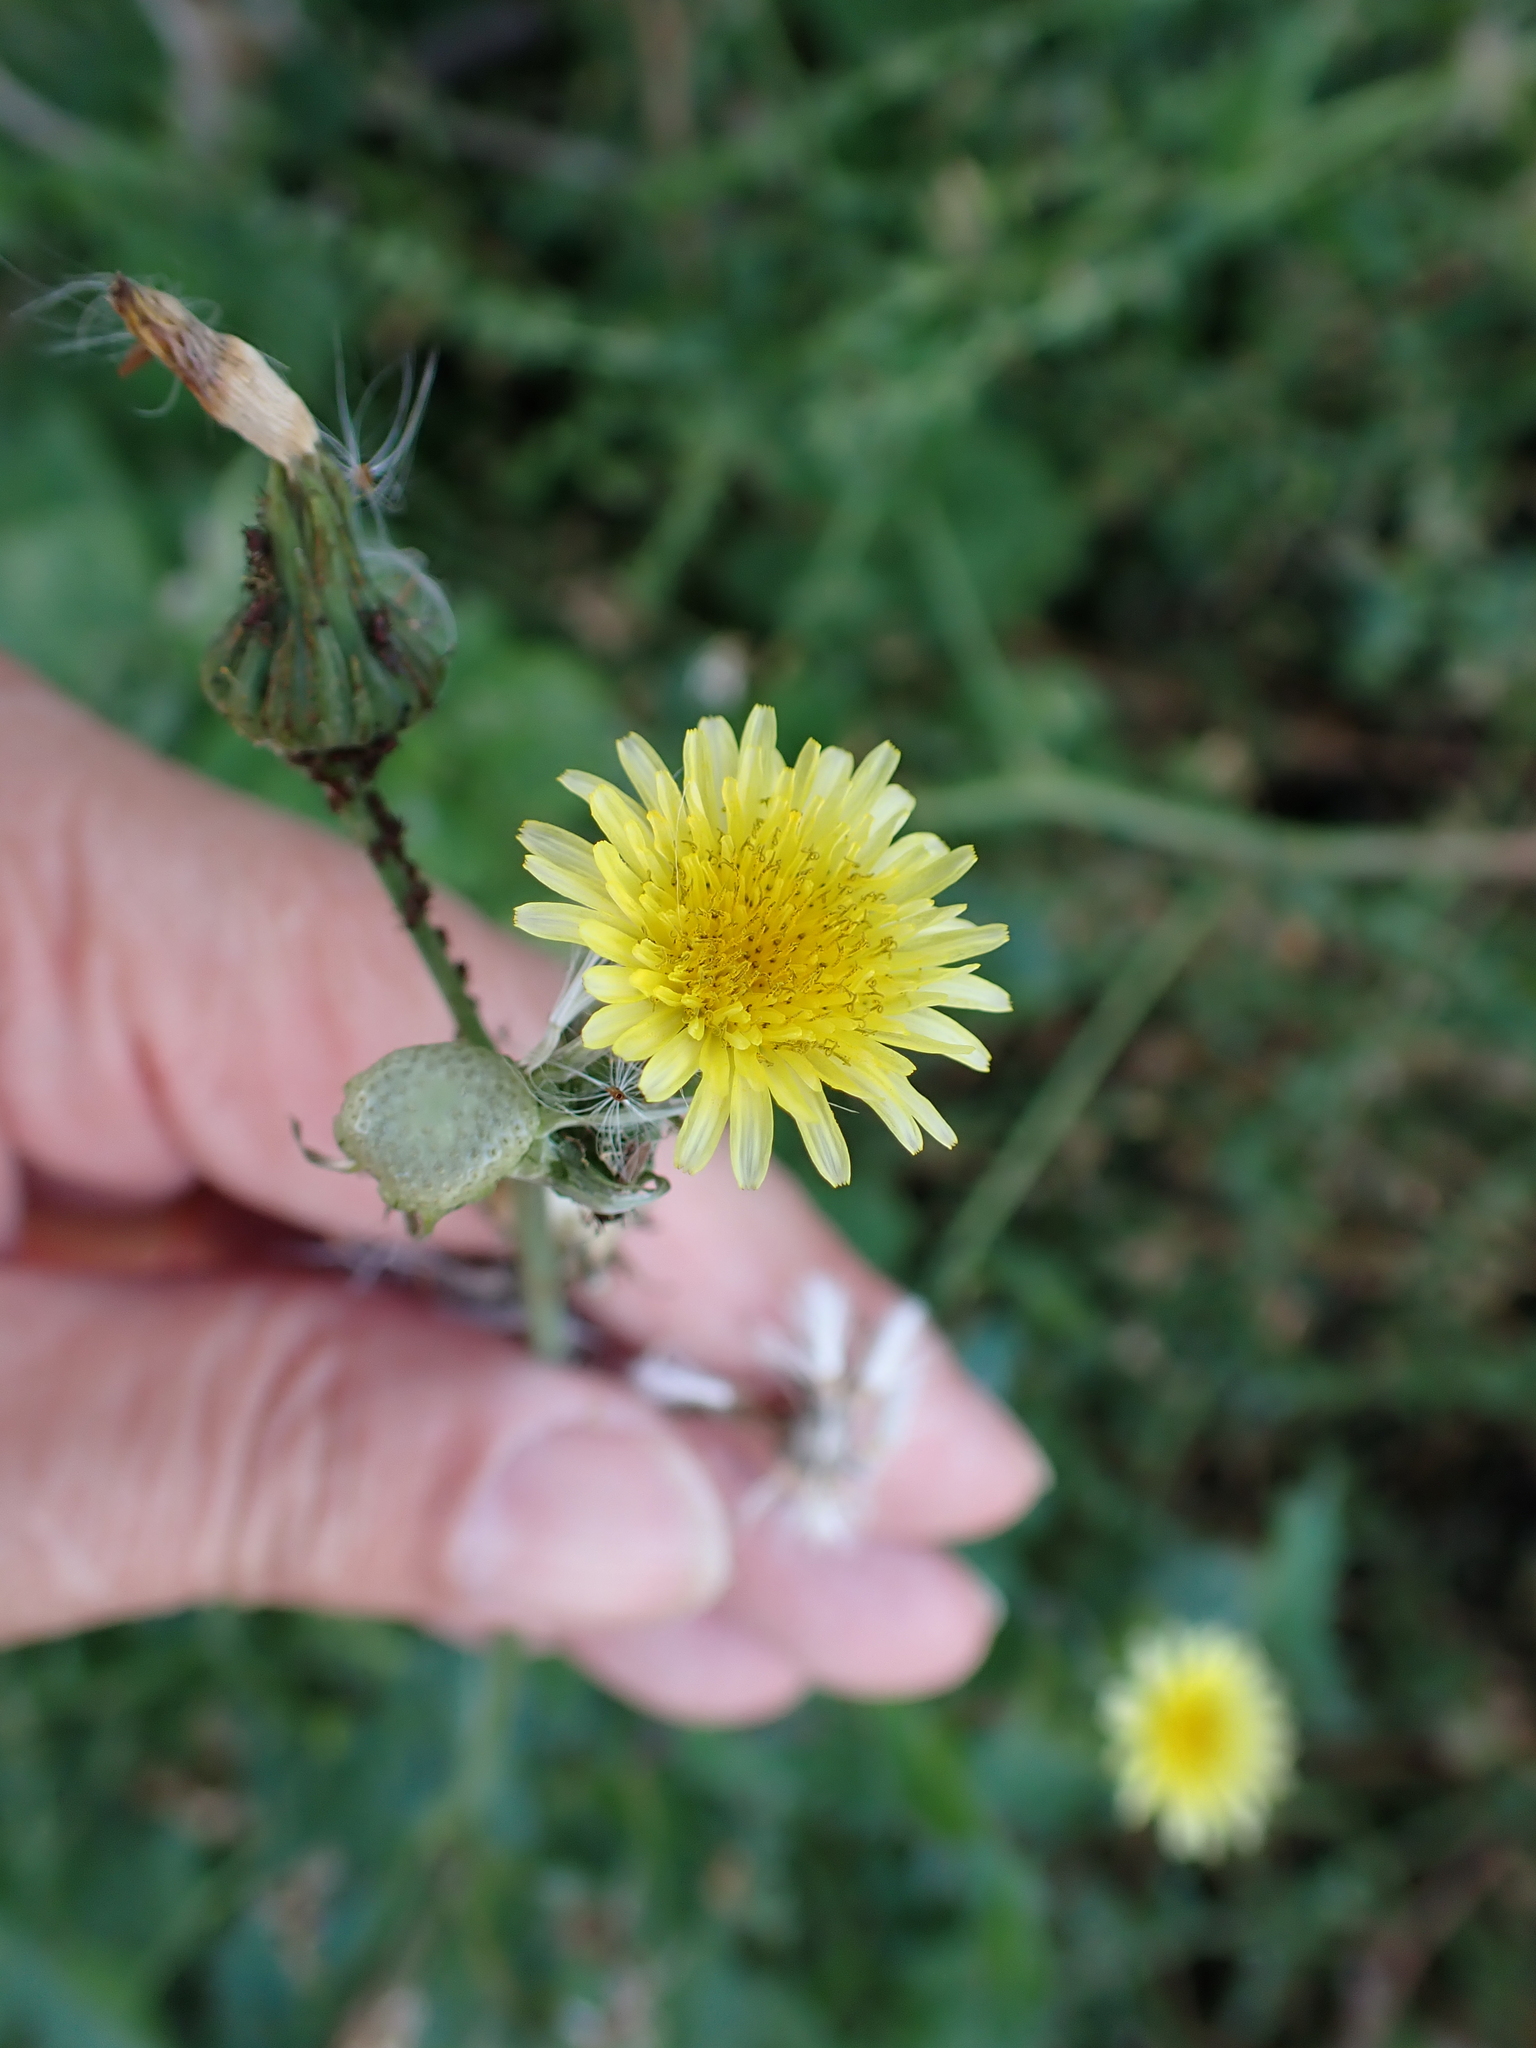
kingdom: Plantae
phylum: Tracheophyta
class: Magnoliopsida
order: Asterales
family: Asteraceae
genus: Sonchus
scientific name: Sonchus oleraceus
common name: Common sowthistle
